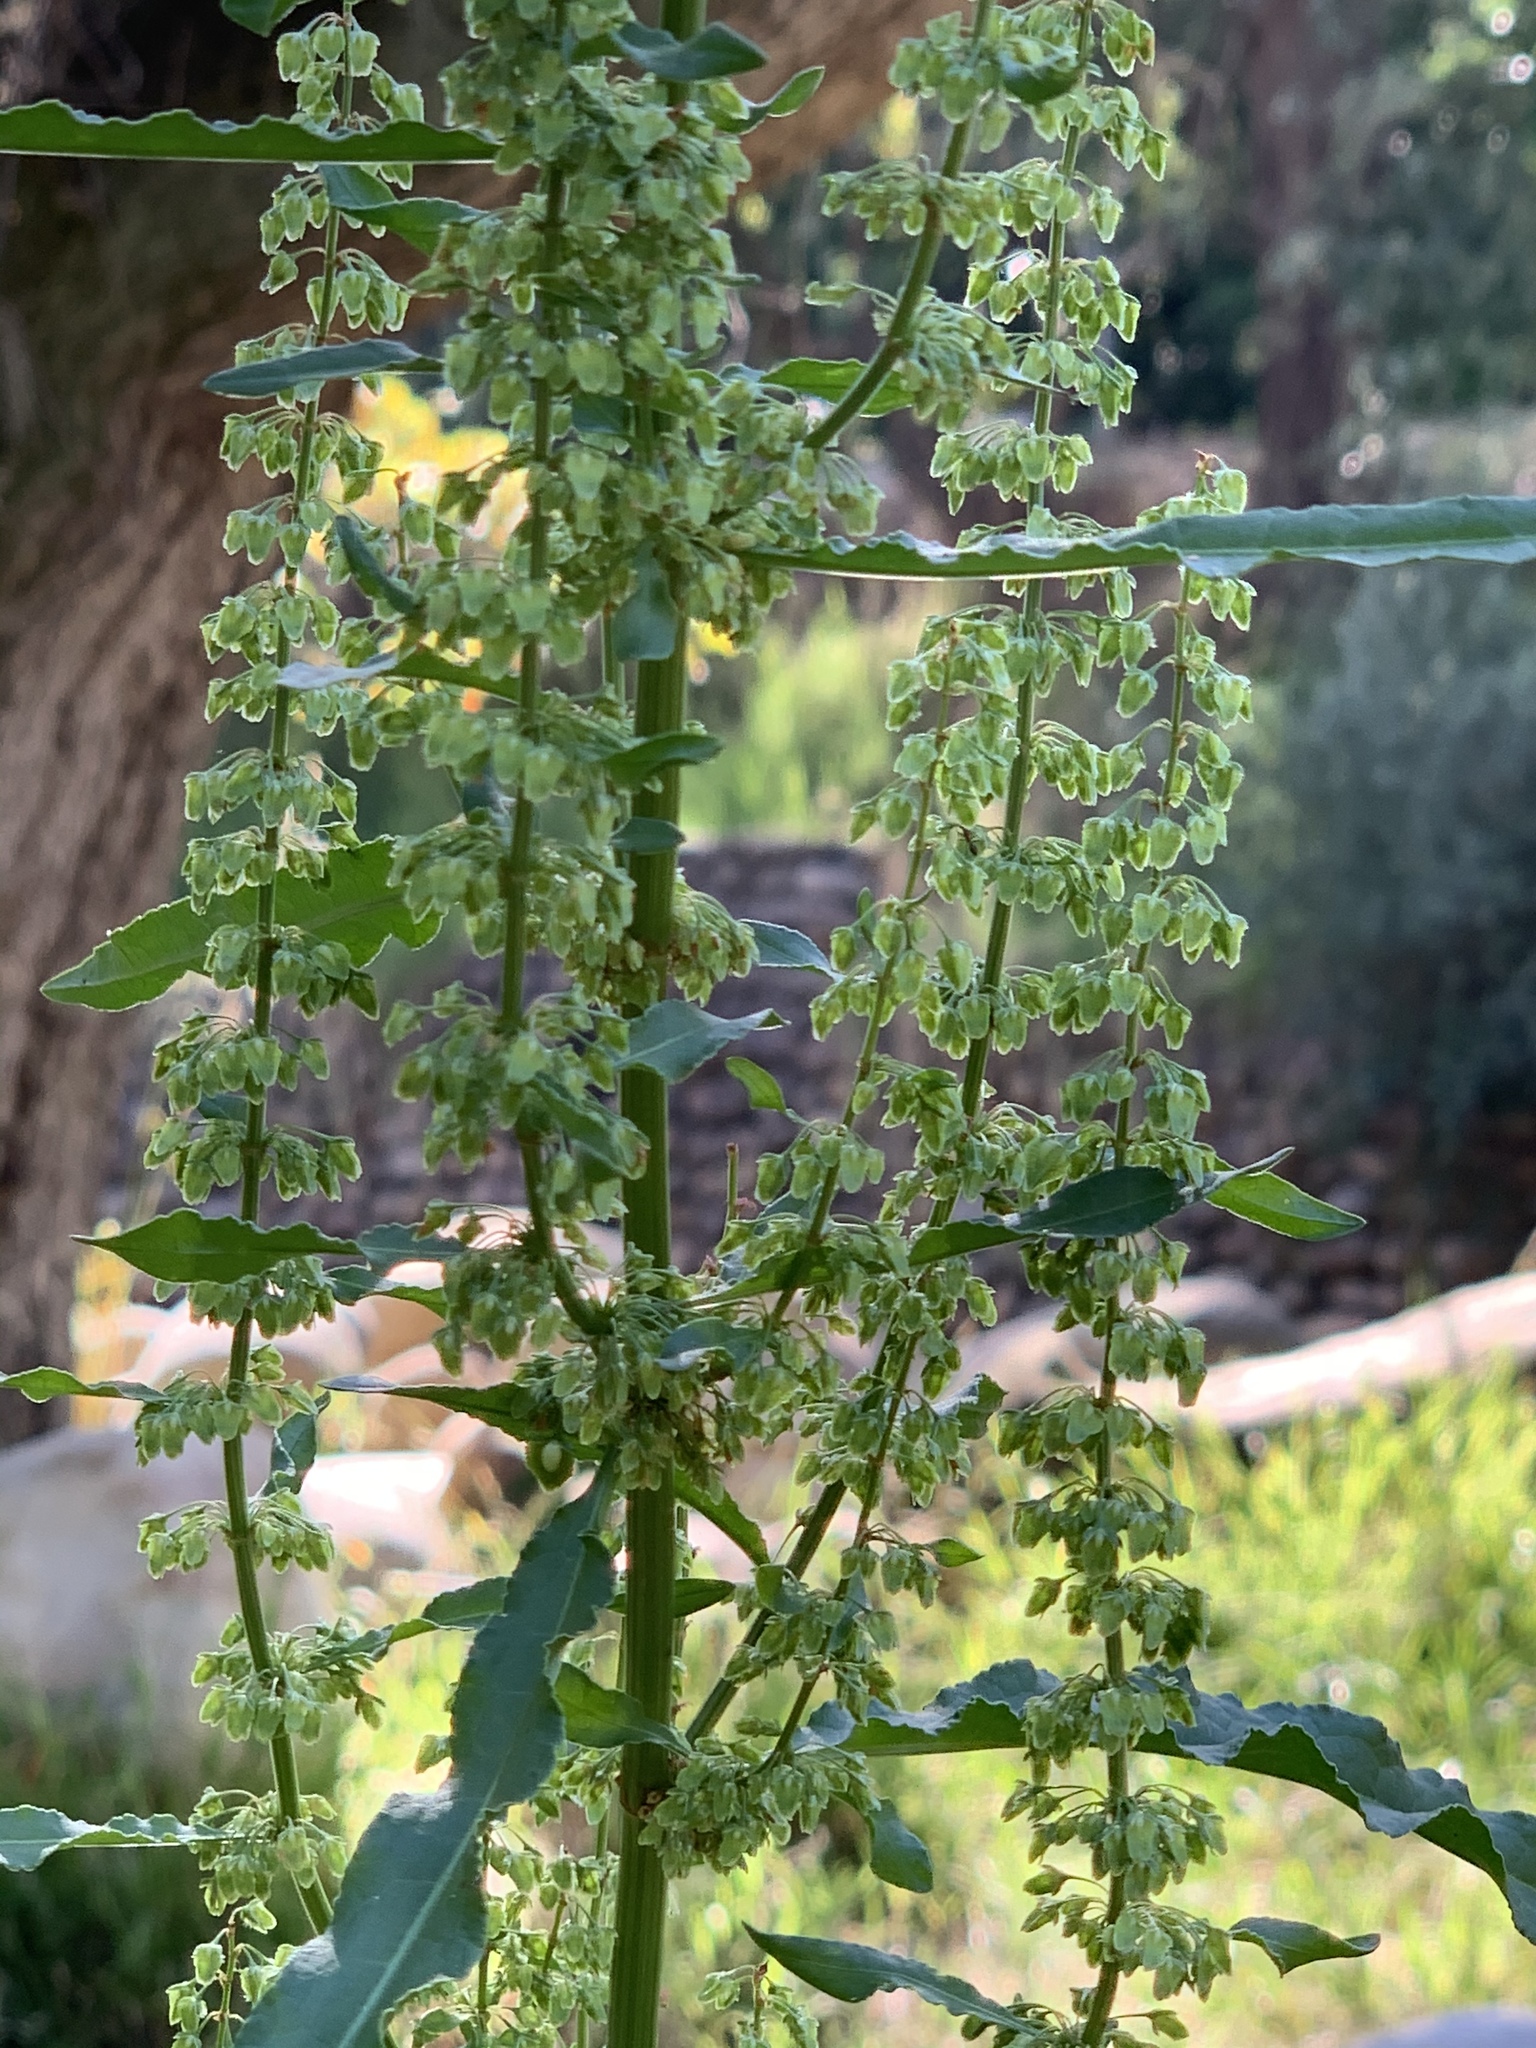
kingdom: Plantae
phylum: Tracheophyta
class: Magnoliopsida
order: Caryophyllales
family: Polygonaceae
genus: Rumex
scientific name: Rumex crispus
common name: Curled dock
